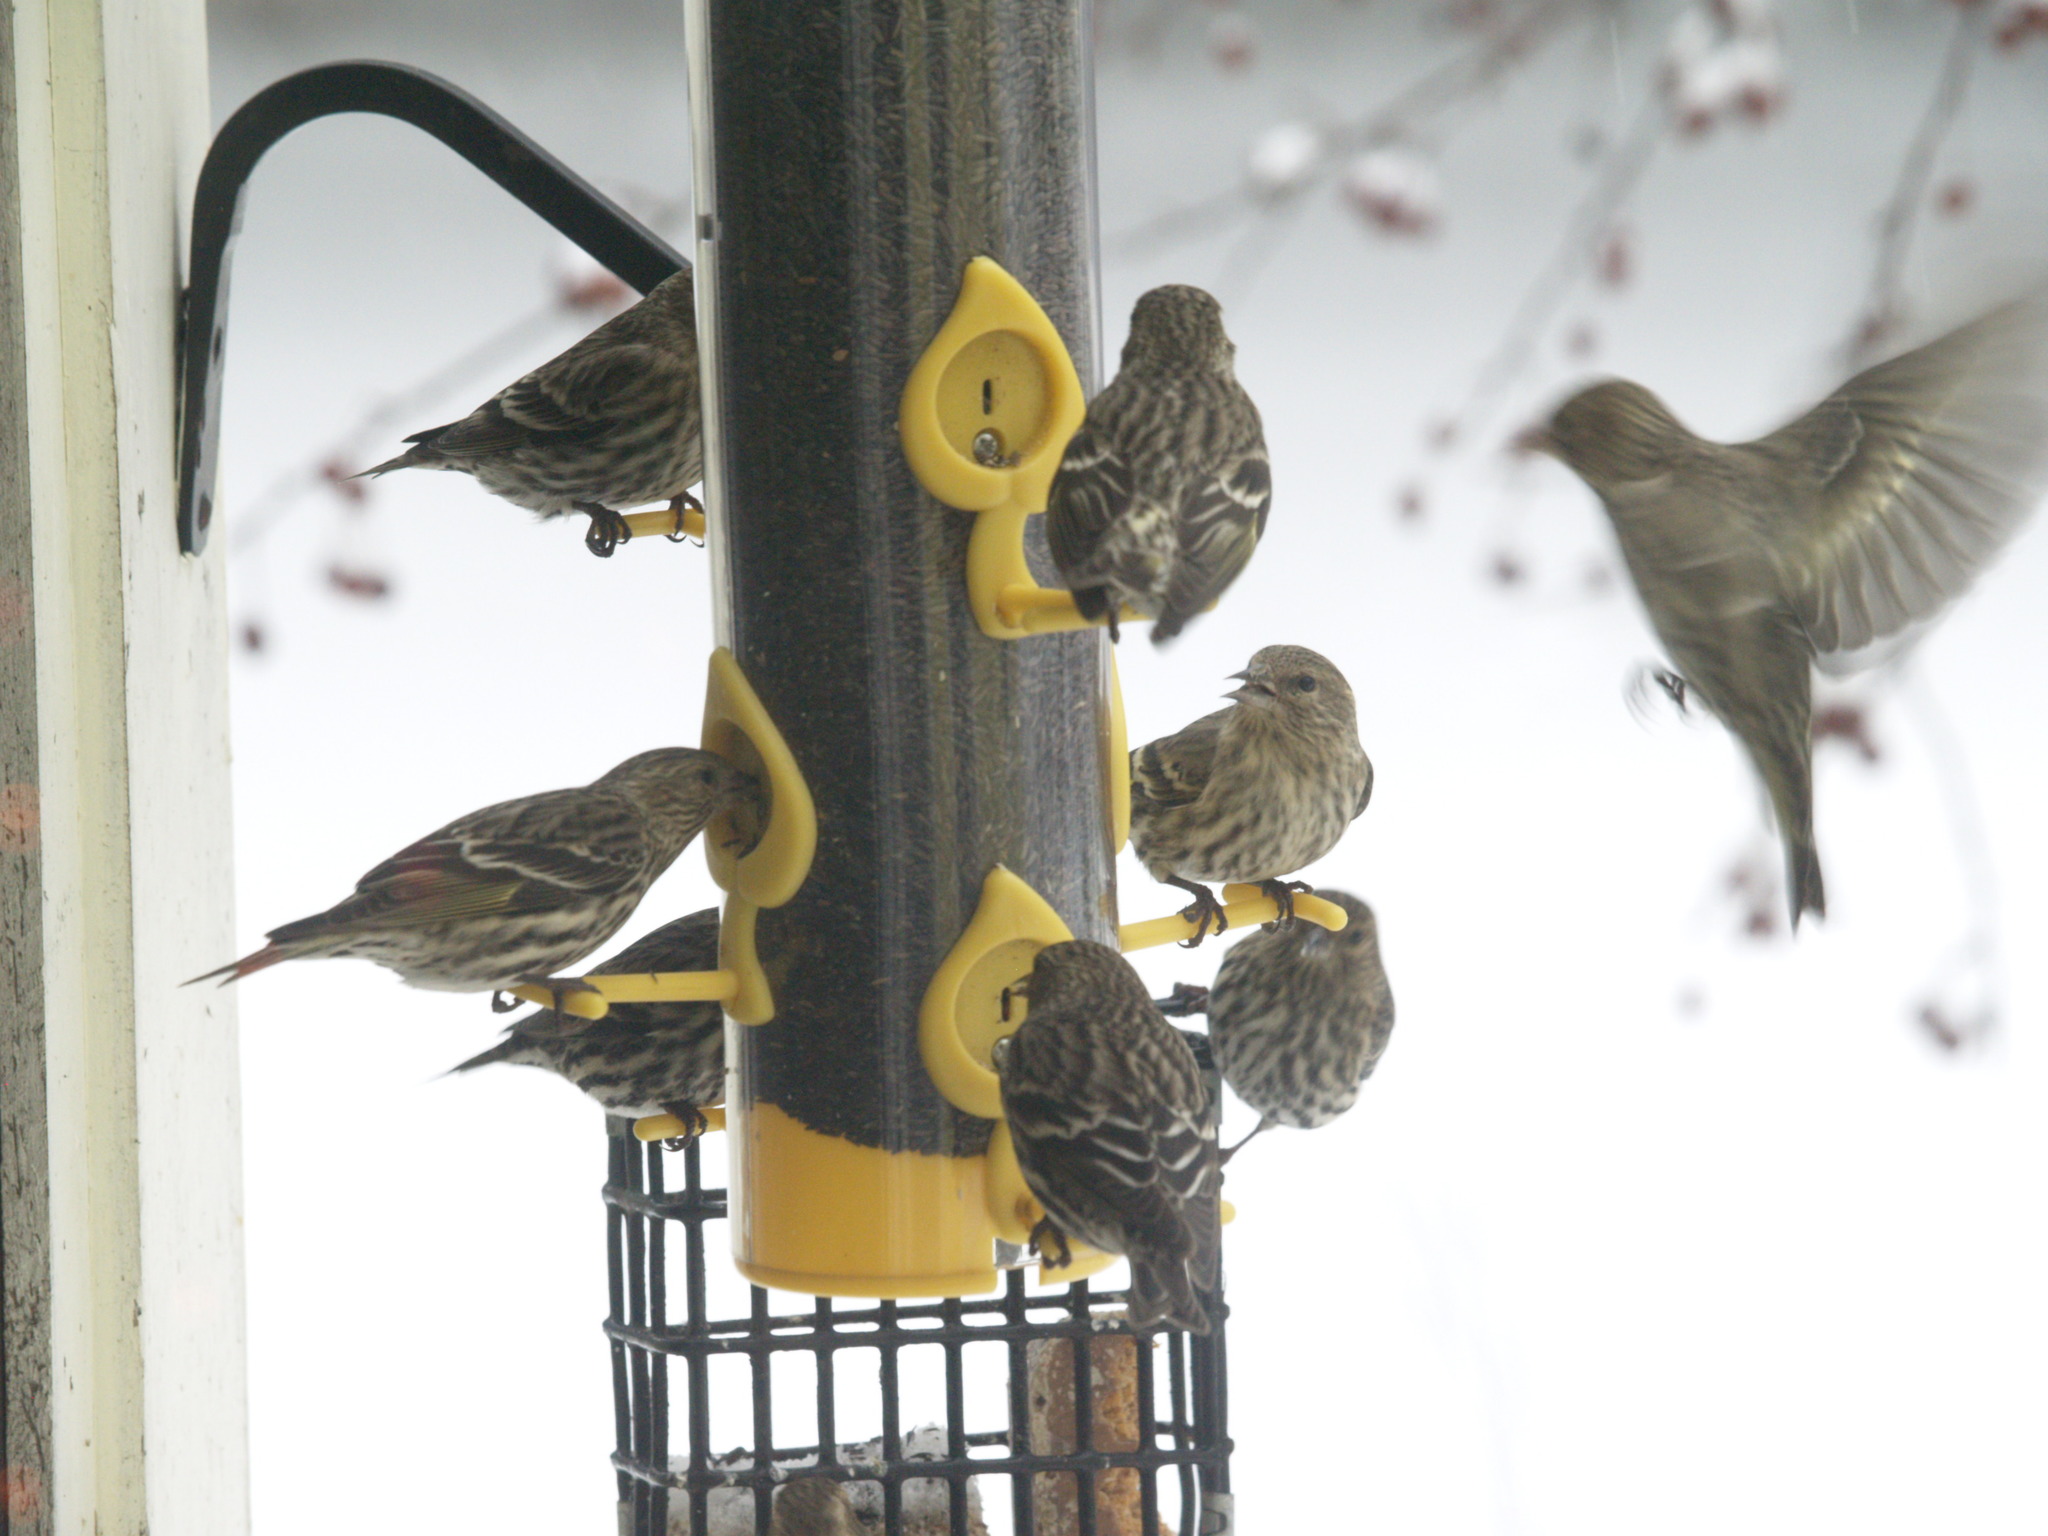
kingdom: Animalia
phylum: Chordata
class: Aves
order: Passeriformes
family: Fringillidae
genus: Spinus
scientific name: Spinus pinus
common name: Pine siskin
